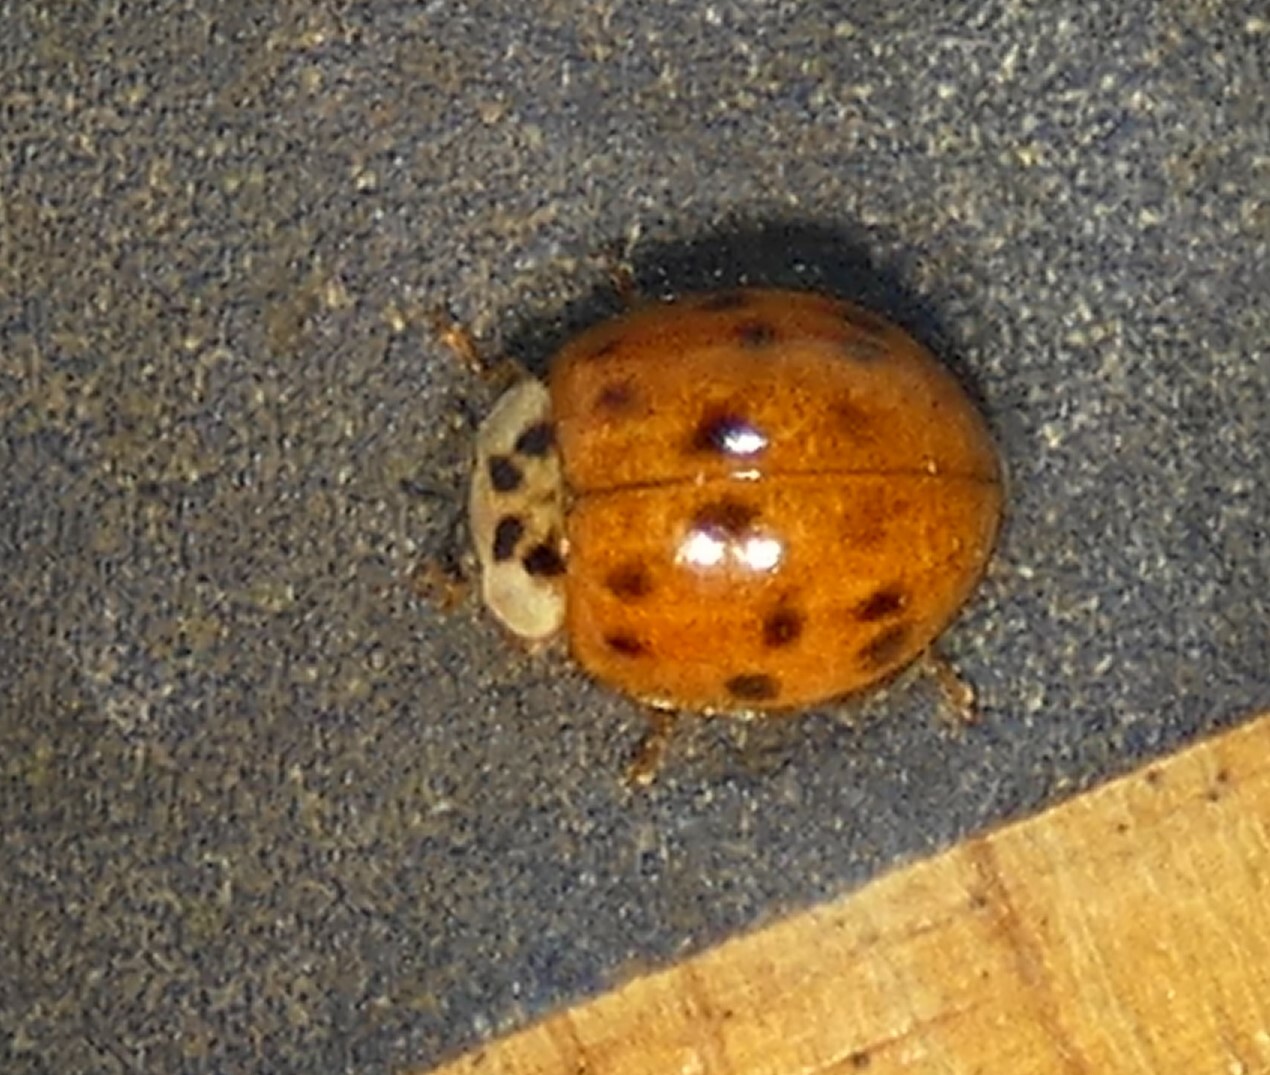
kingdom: Animalia
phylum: Arthropoda
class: Insecta
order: Coleoptera
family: Coccinellidae
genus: Harmonia
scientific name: Harmonia axyridis
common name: Harlequin ladybird
